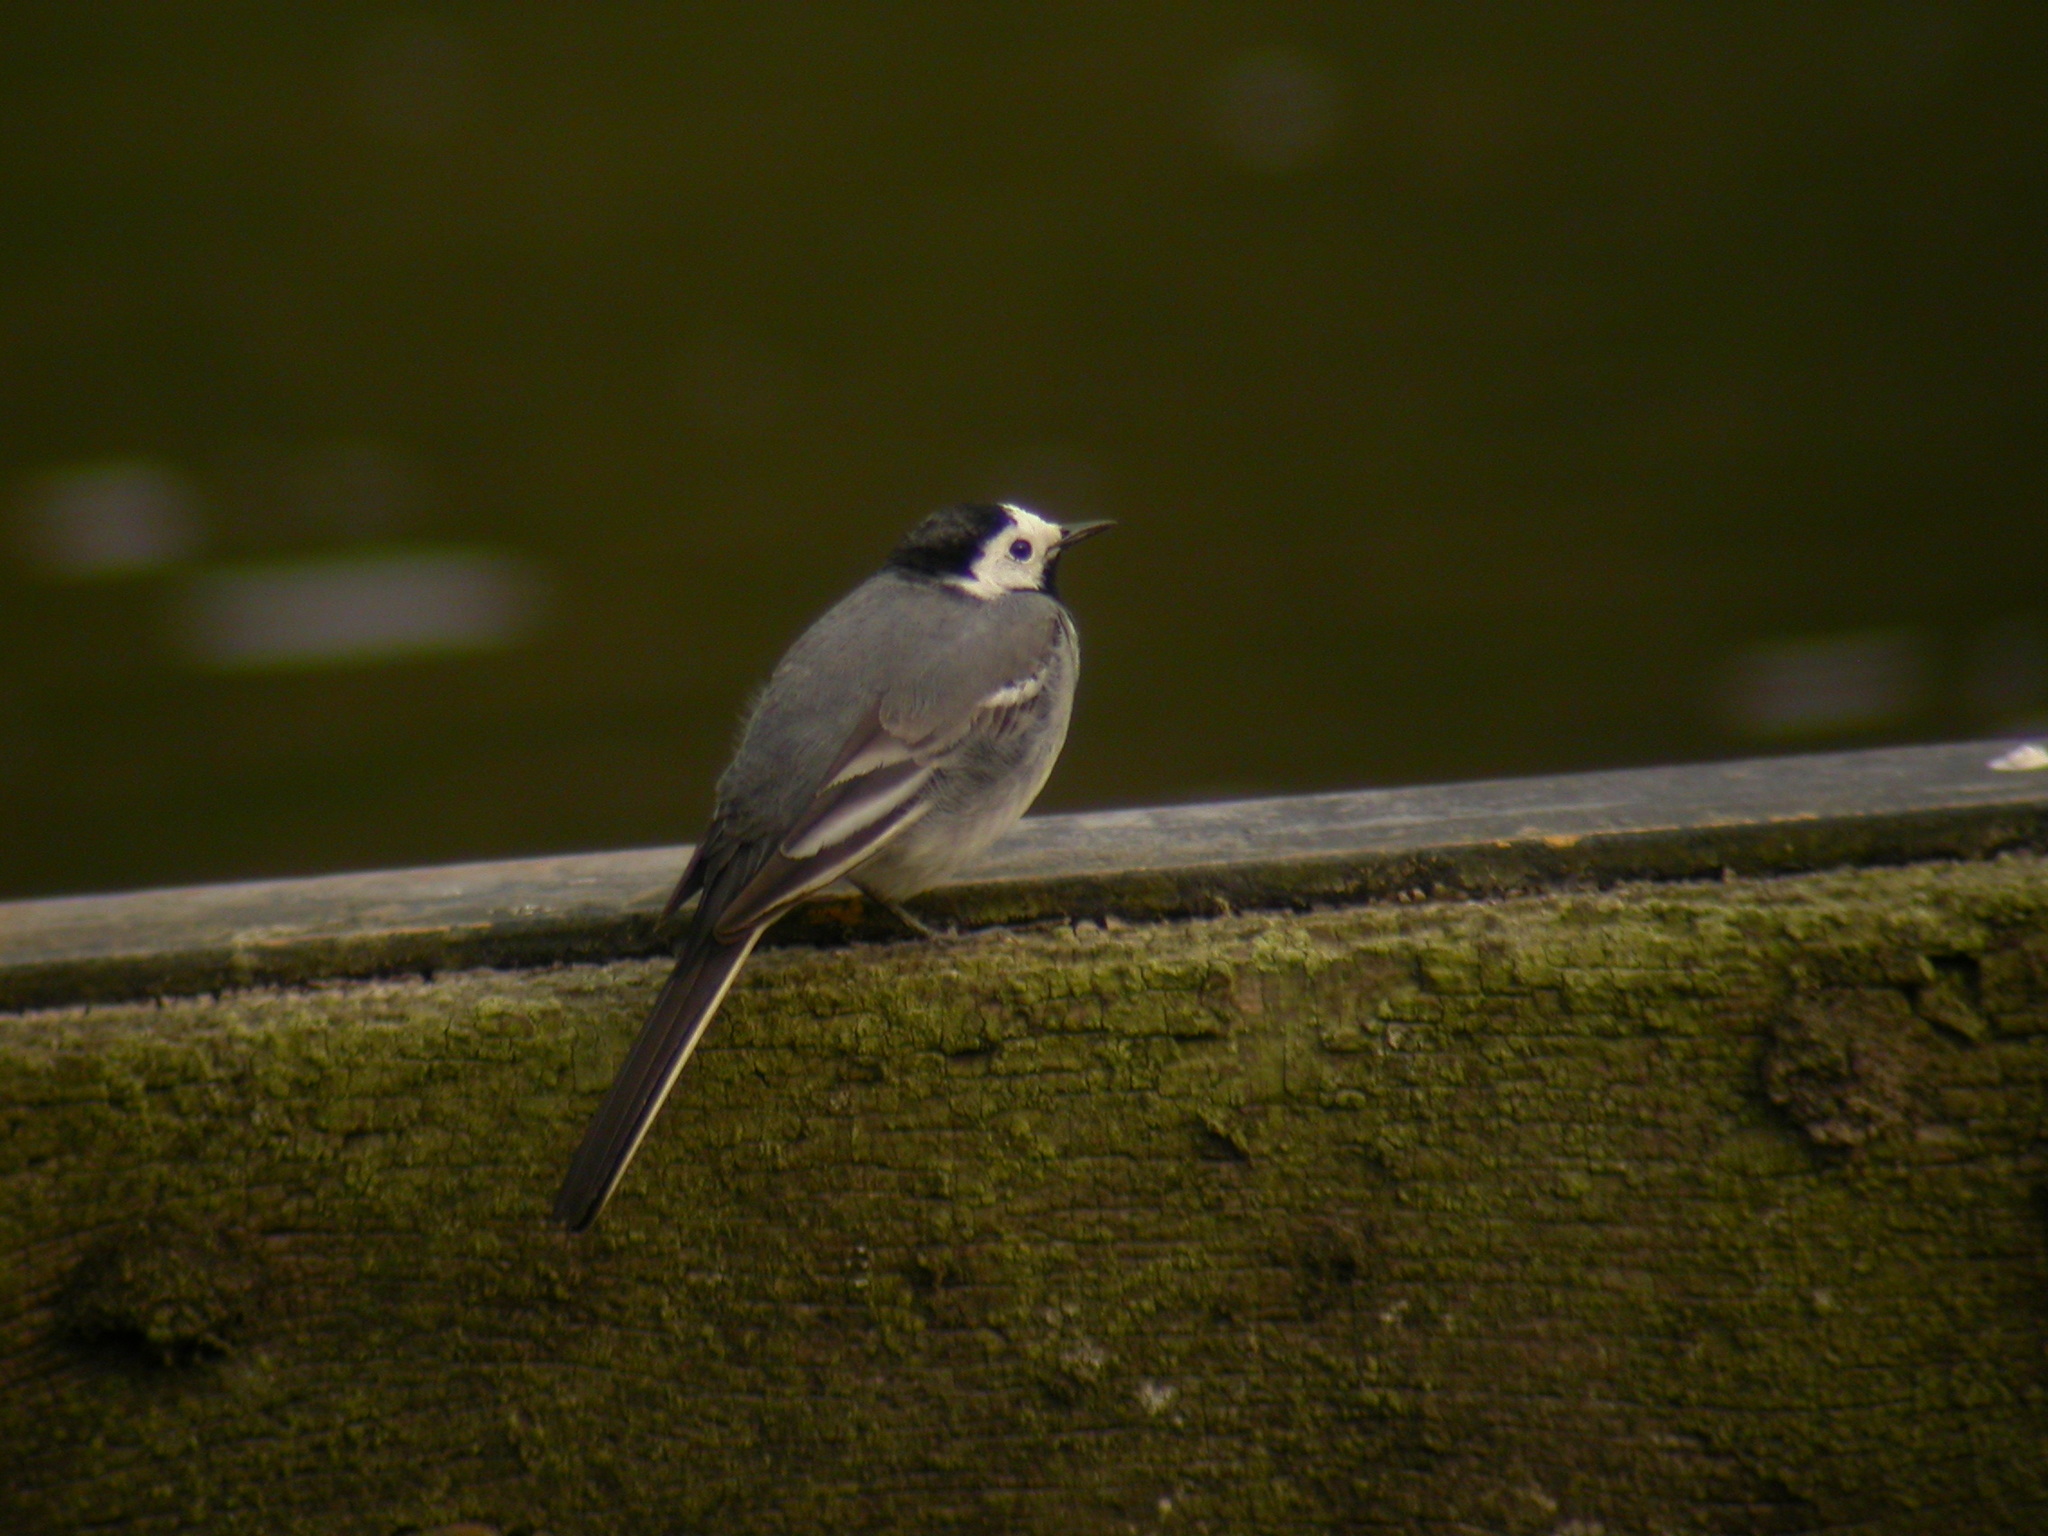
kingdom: Animalia
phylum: Chordata
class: Aves
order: Passeriformes
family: Motacillidae
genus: Motacilla
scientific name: Motacilla alba
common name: White wagtail
